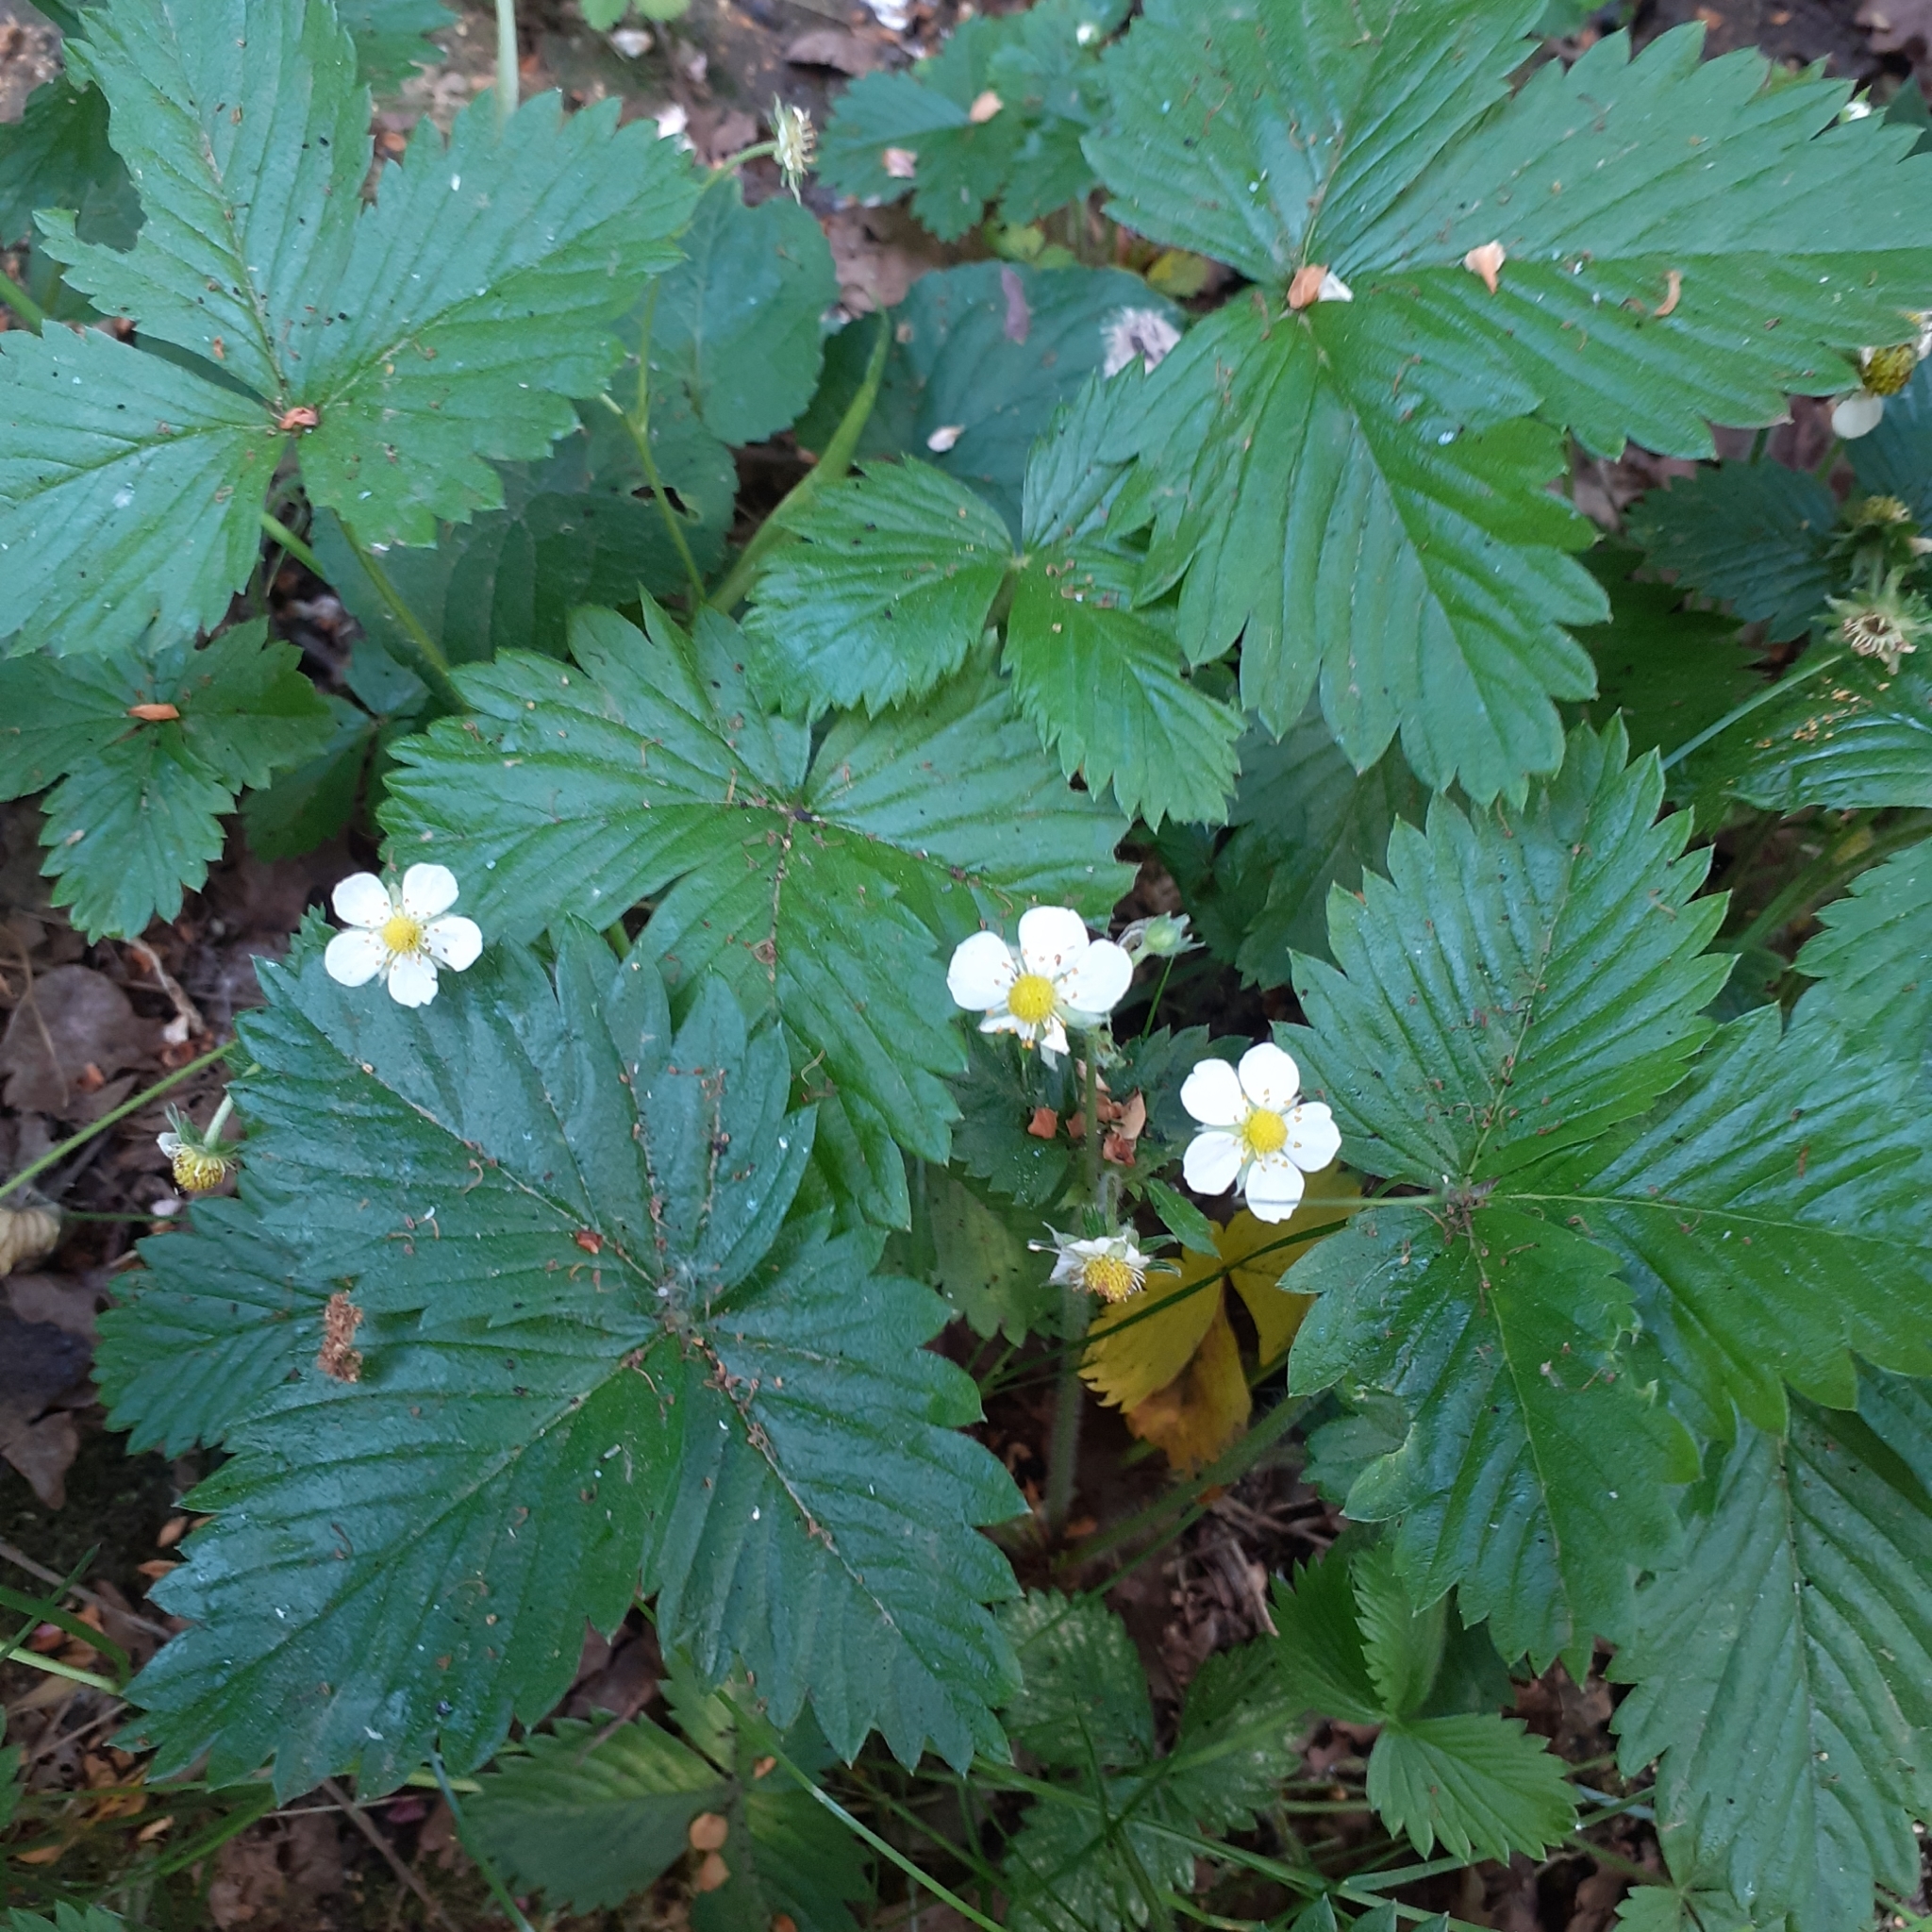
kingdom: Plantae
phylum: Tracheophyta
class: Magnoliopsida
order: Rosales
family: Rosaceae
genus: Fragaria
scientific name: Fragaria vesca
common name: Wild strawberry
